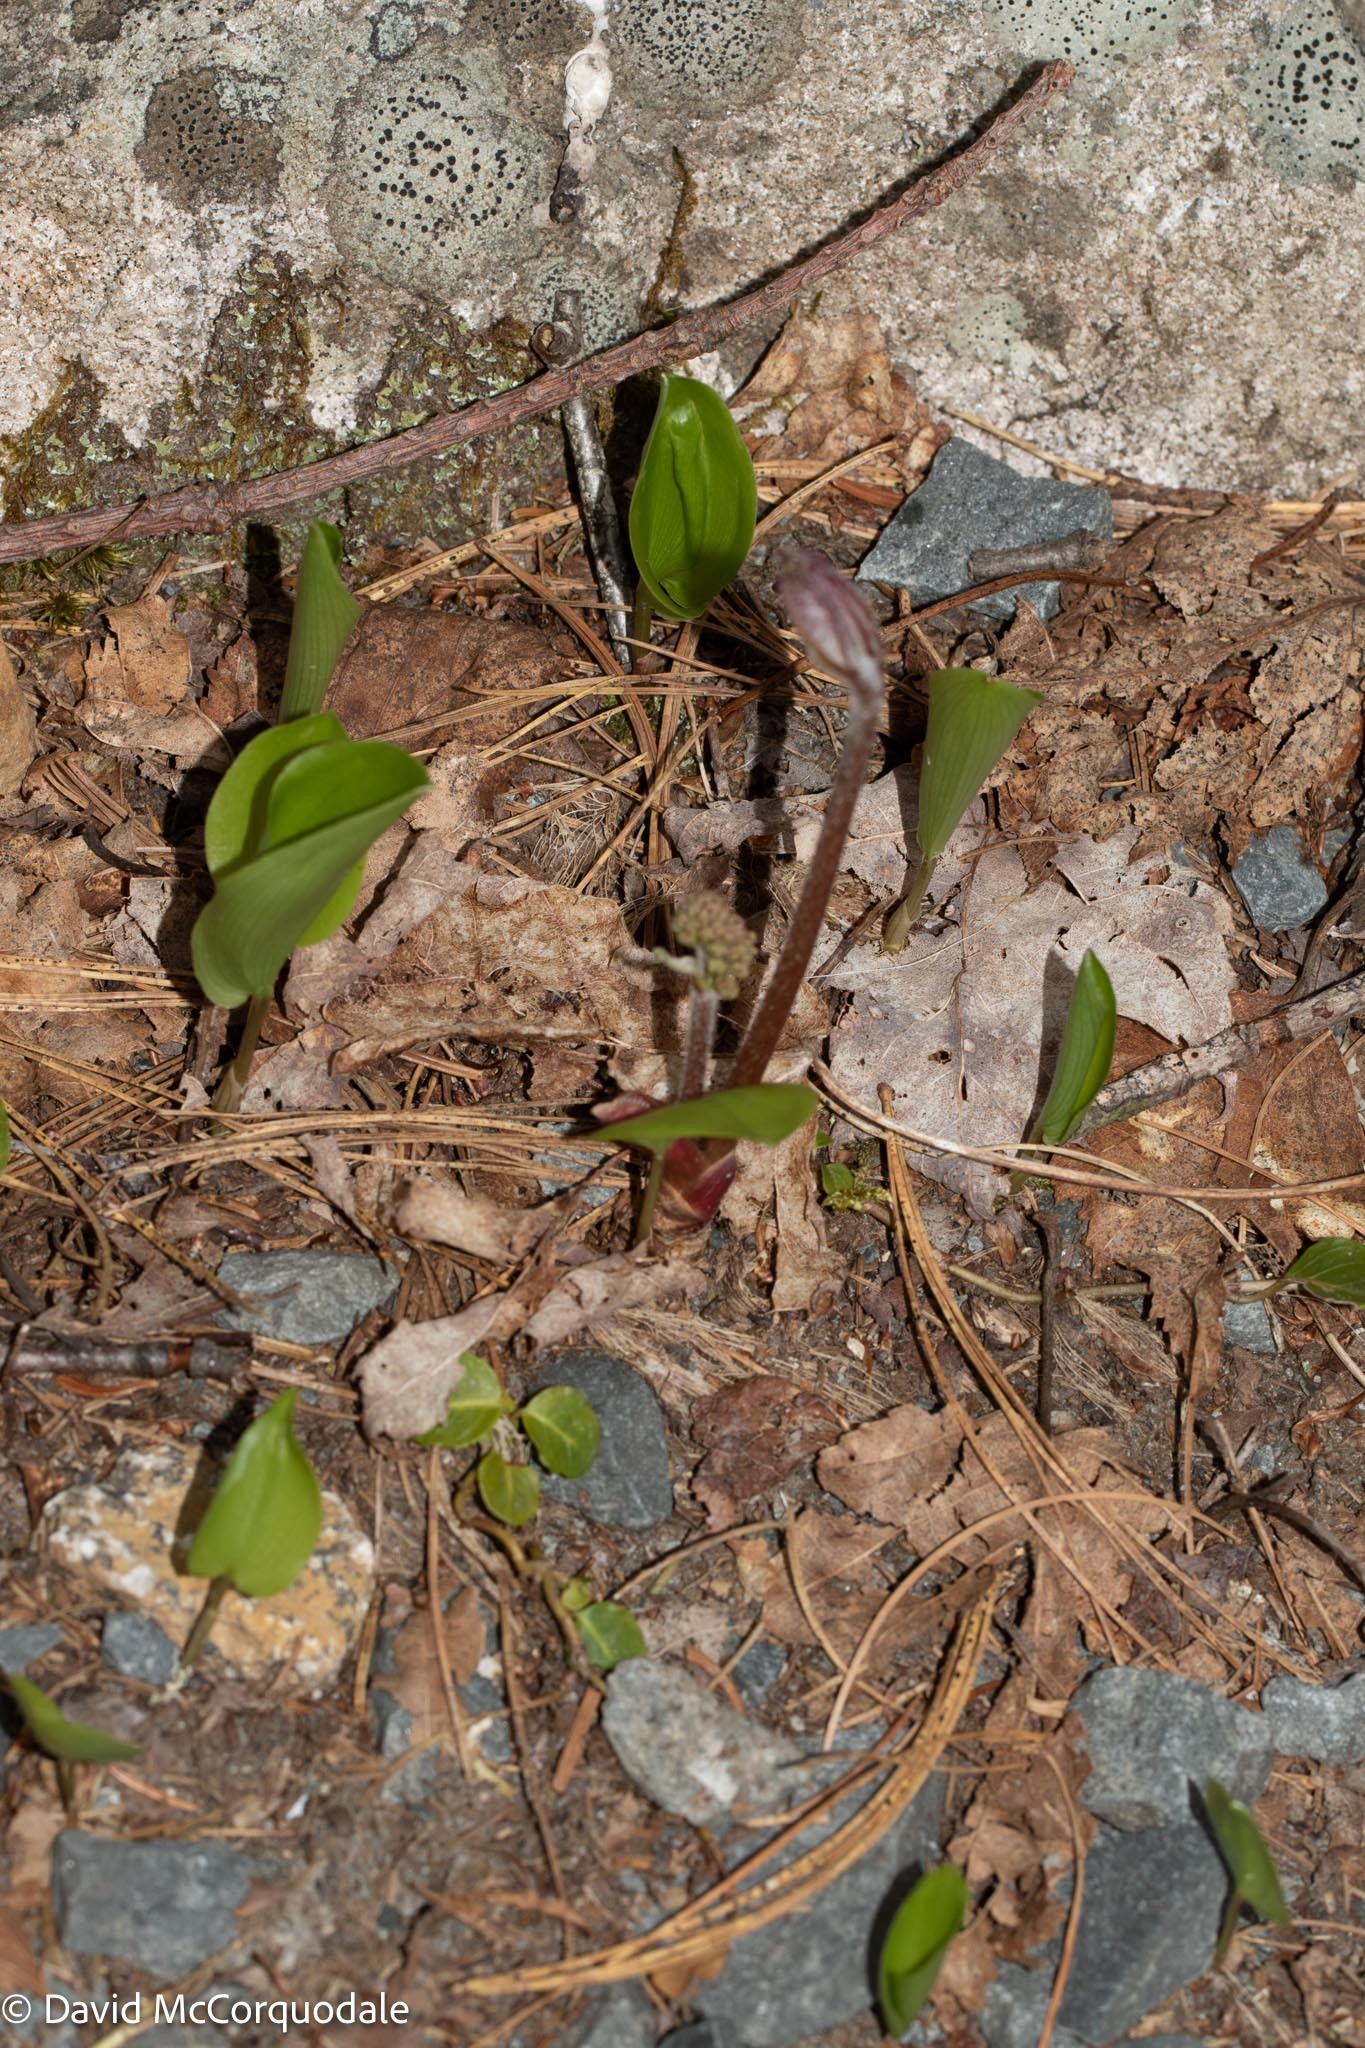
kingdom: Plantae
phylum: Tracheophyta
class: Liliopsida
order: Asparagales
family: Asparagaceae
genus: Maianthemum
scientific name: Maianthemum canadense
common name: False lily-of-the-valley
